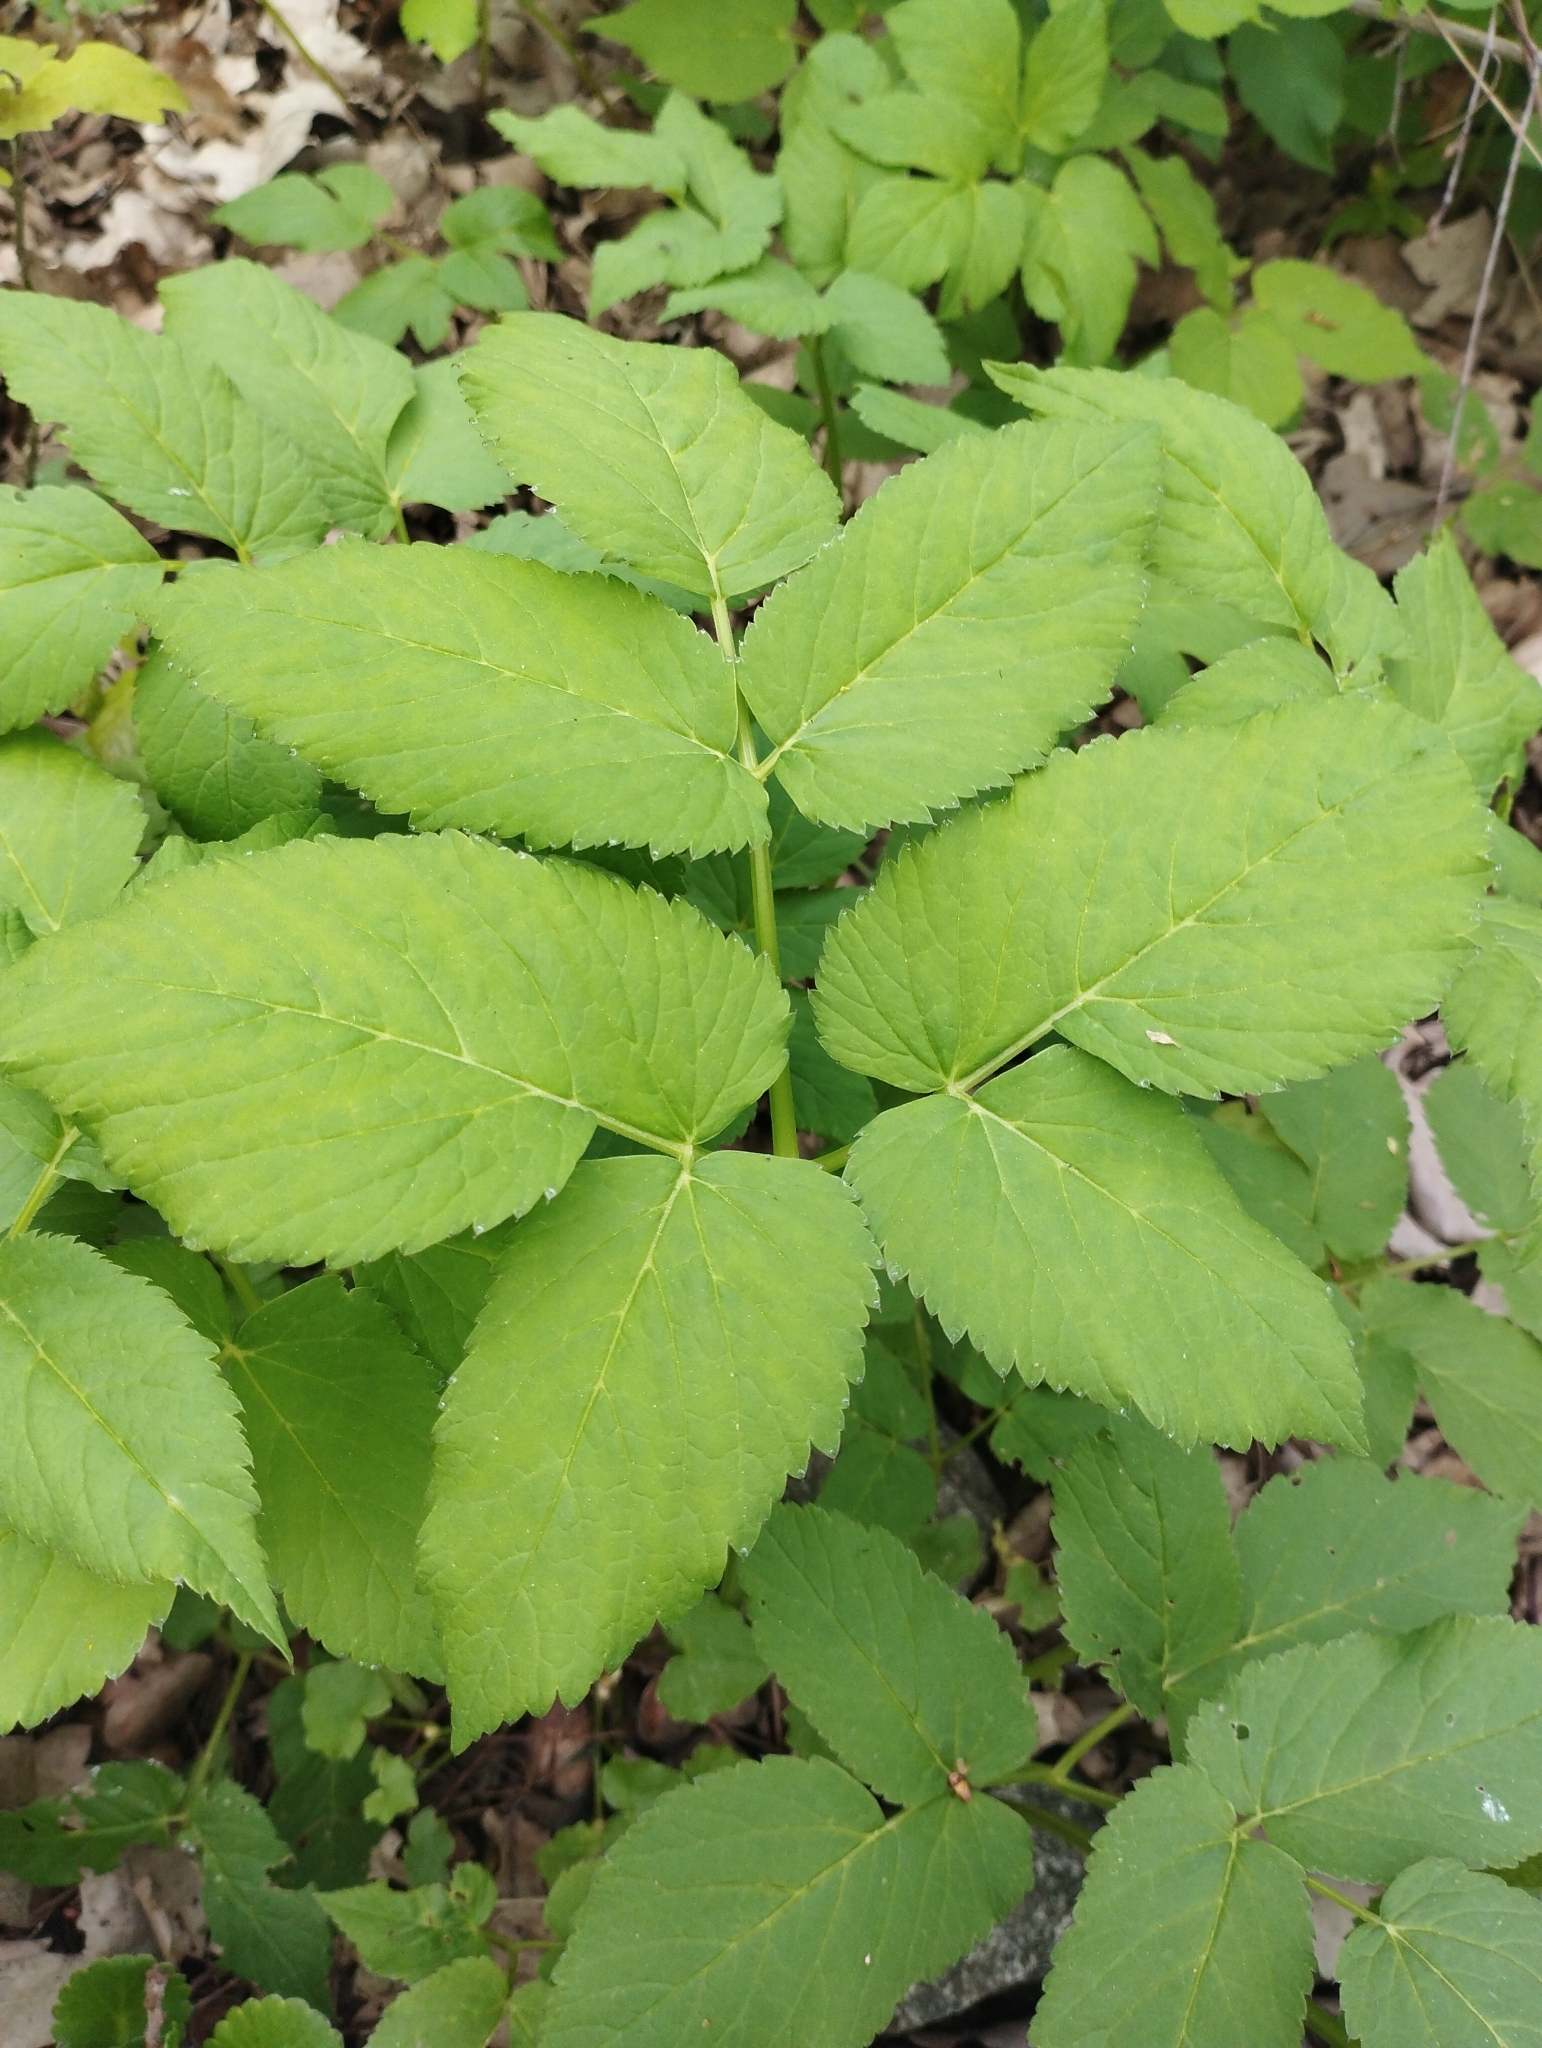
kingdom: Plantae
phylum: Tracheophyta
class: Magnoliopsida
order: Apiales
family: Apiaceae
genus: Aegopodium
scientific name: Aegopodium podagraria
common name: Ground-elder
